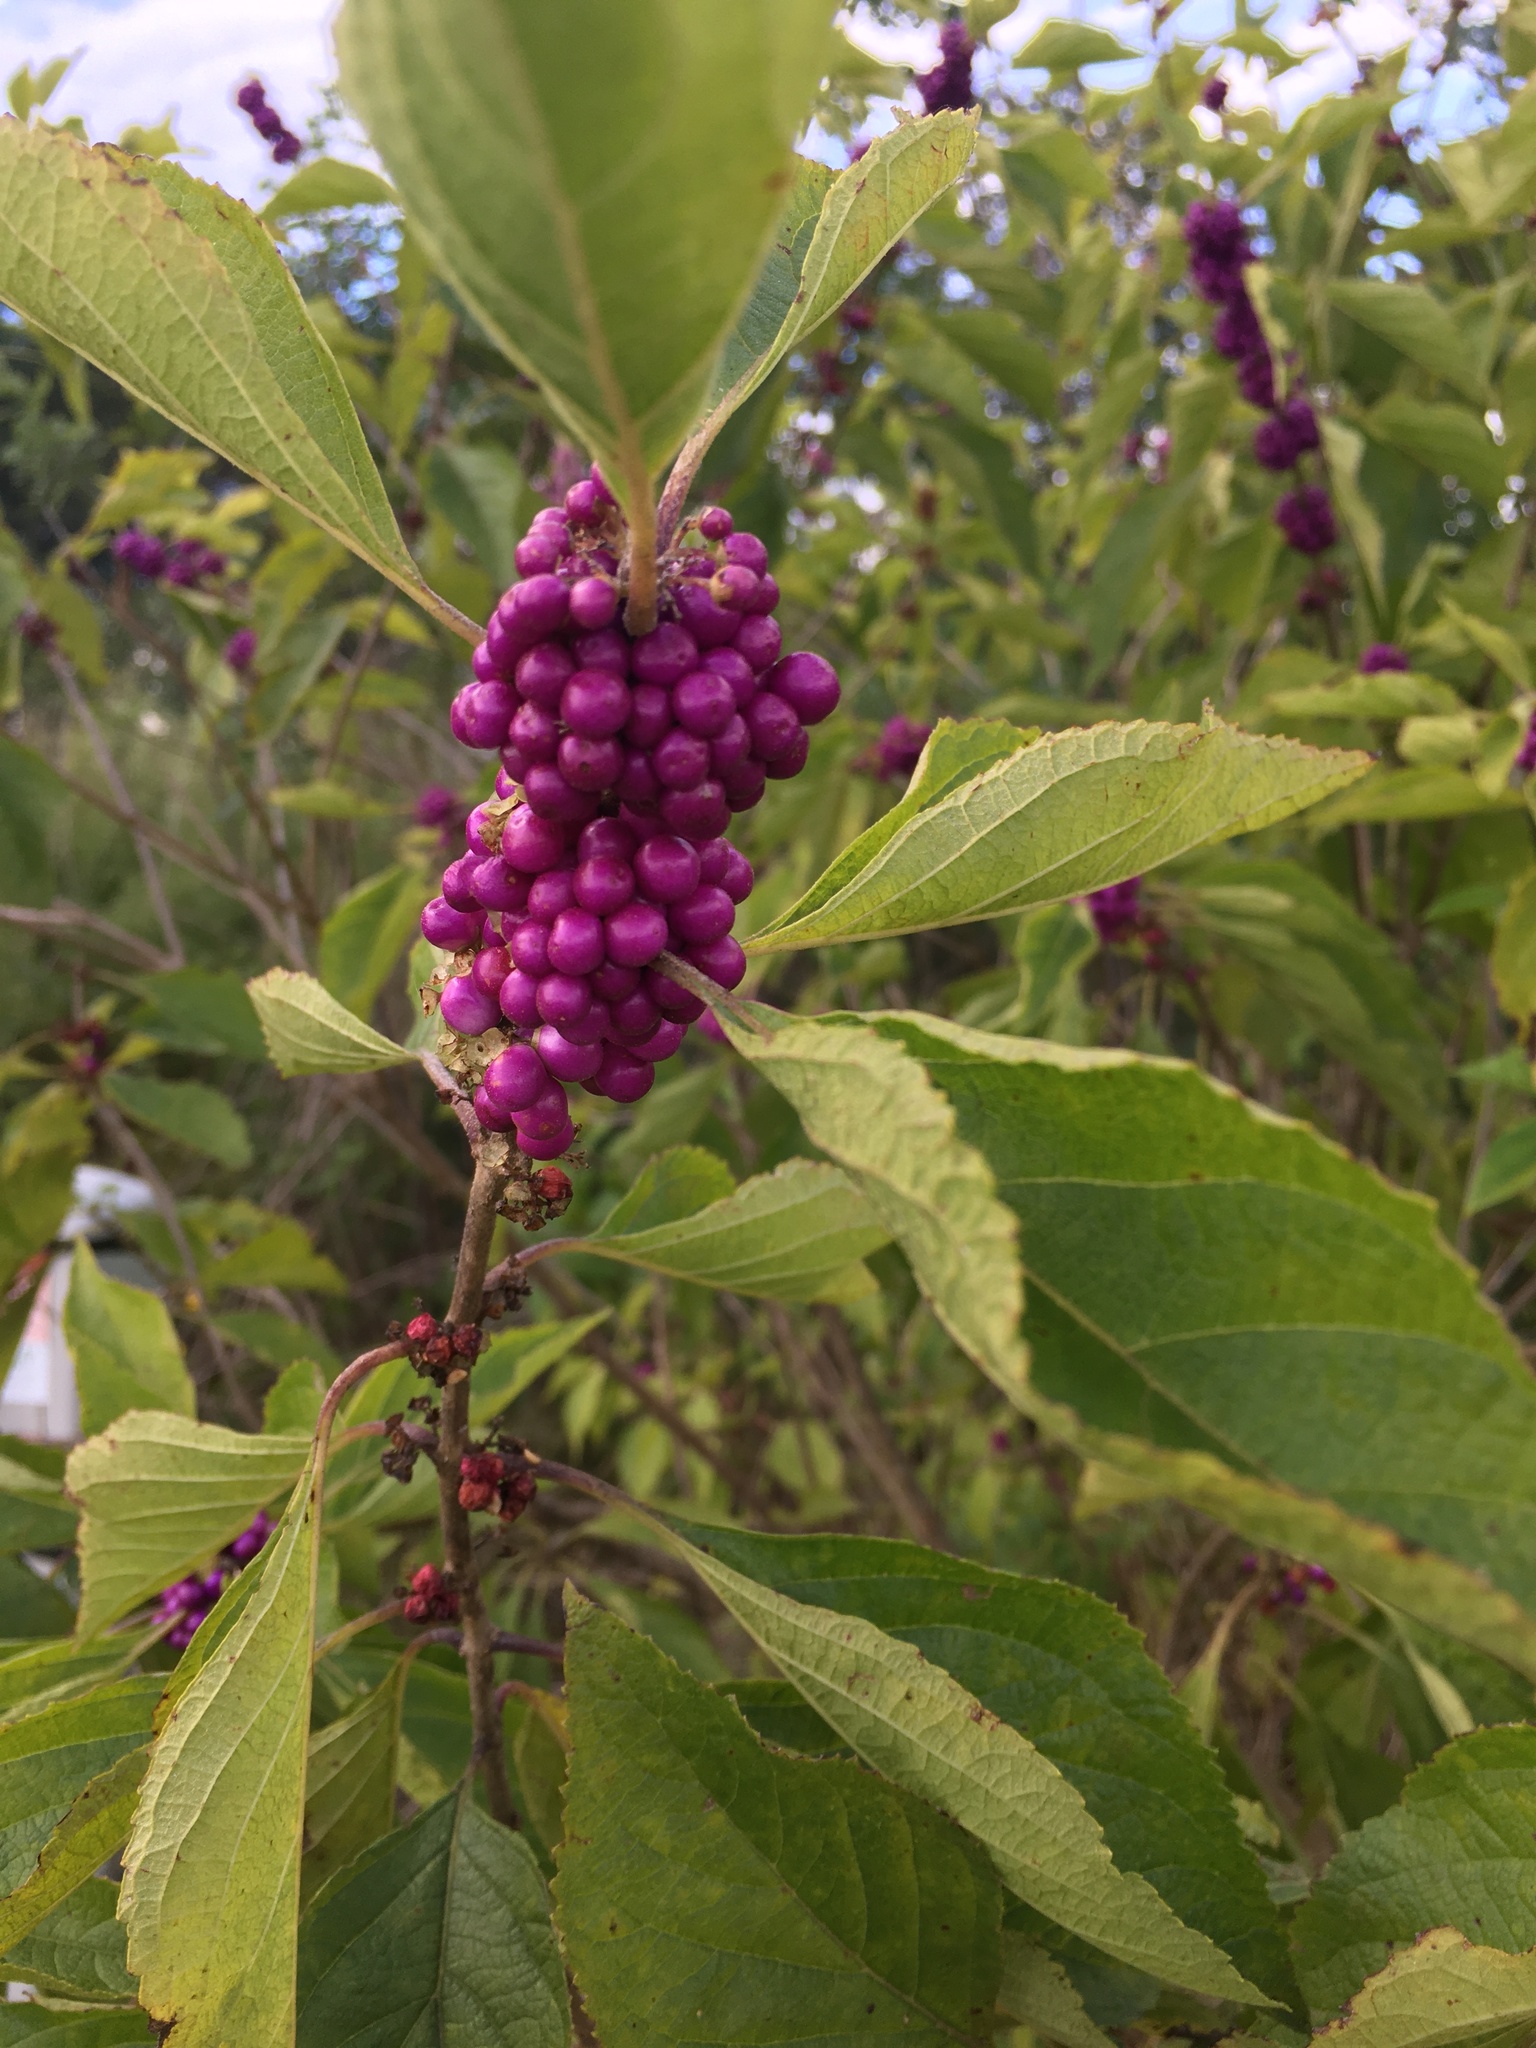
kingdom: Plantae
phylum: Tracheophyta
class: Magnoliopsida
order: Lamiales
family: Lamiaceae
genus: Callicarpa
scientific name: Callicarpa americana
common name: American beautyberry
